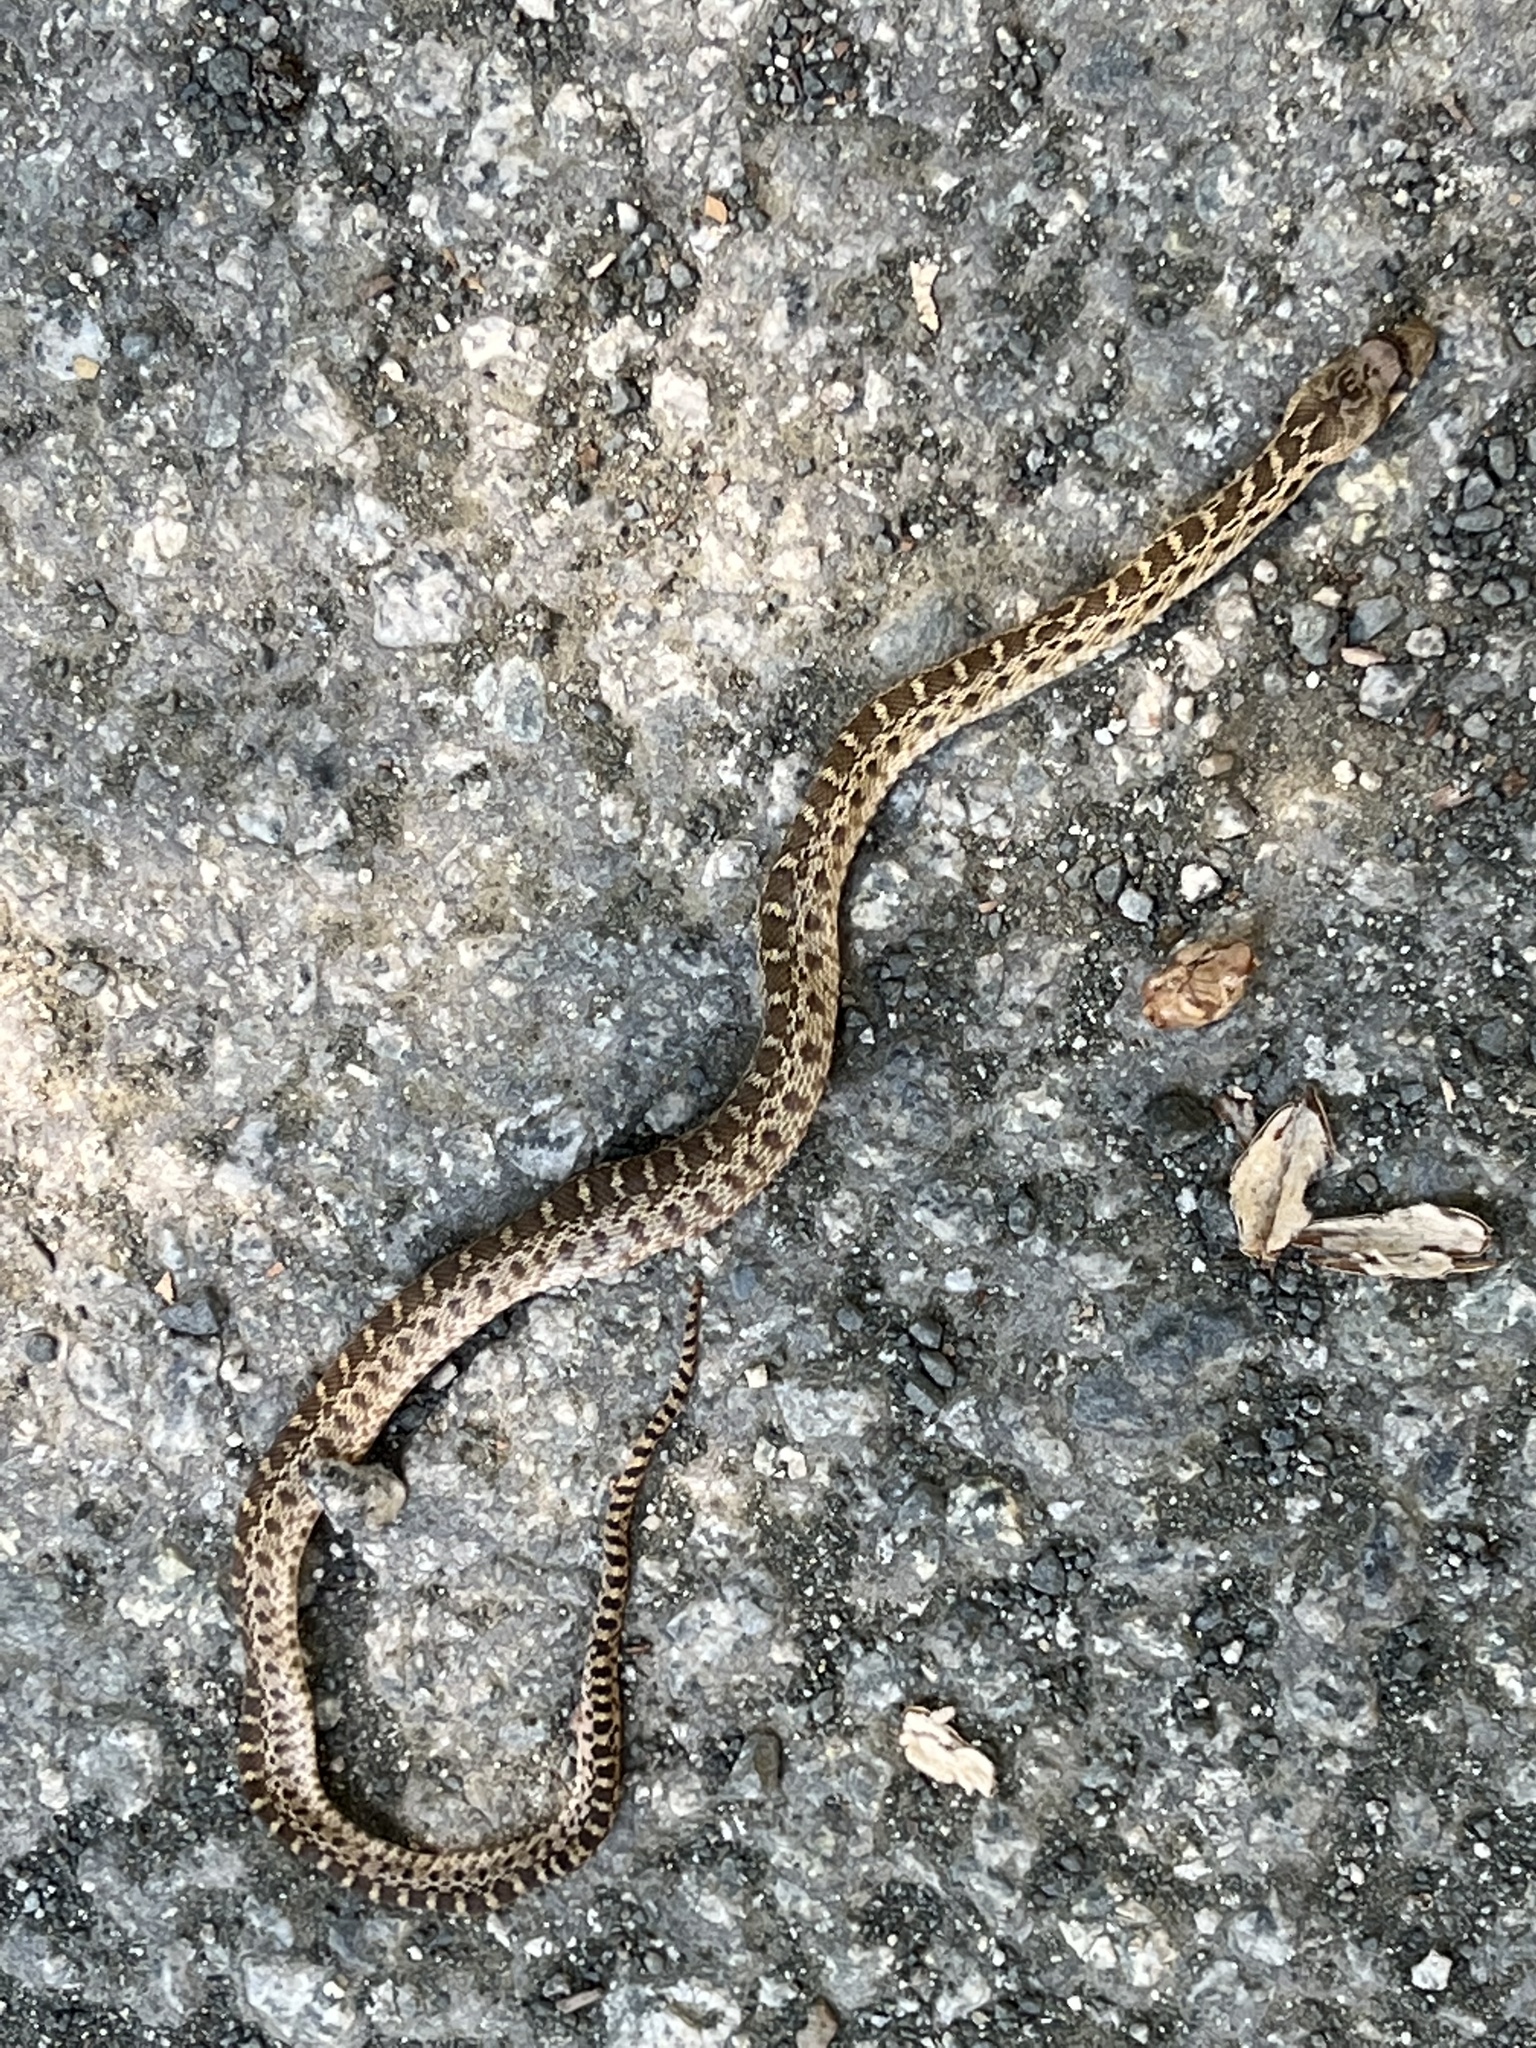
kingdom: Animalia
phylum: Chordata
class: Squamata
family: Colubridae
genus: Pituophis
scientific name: Pituophis catenifer
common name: Gopher snake
